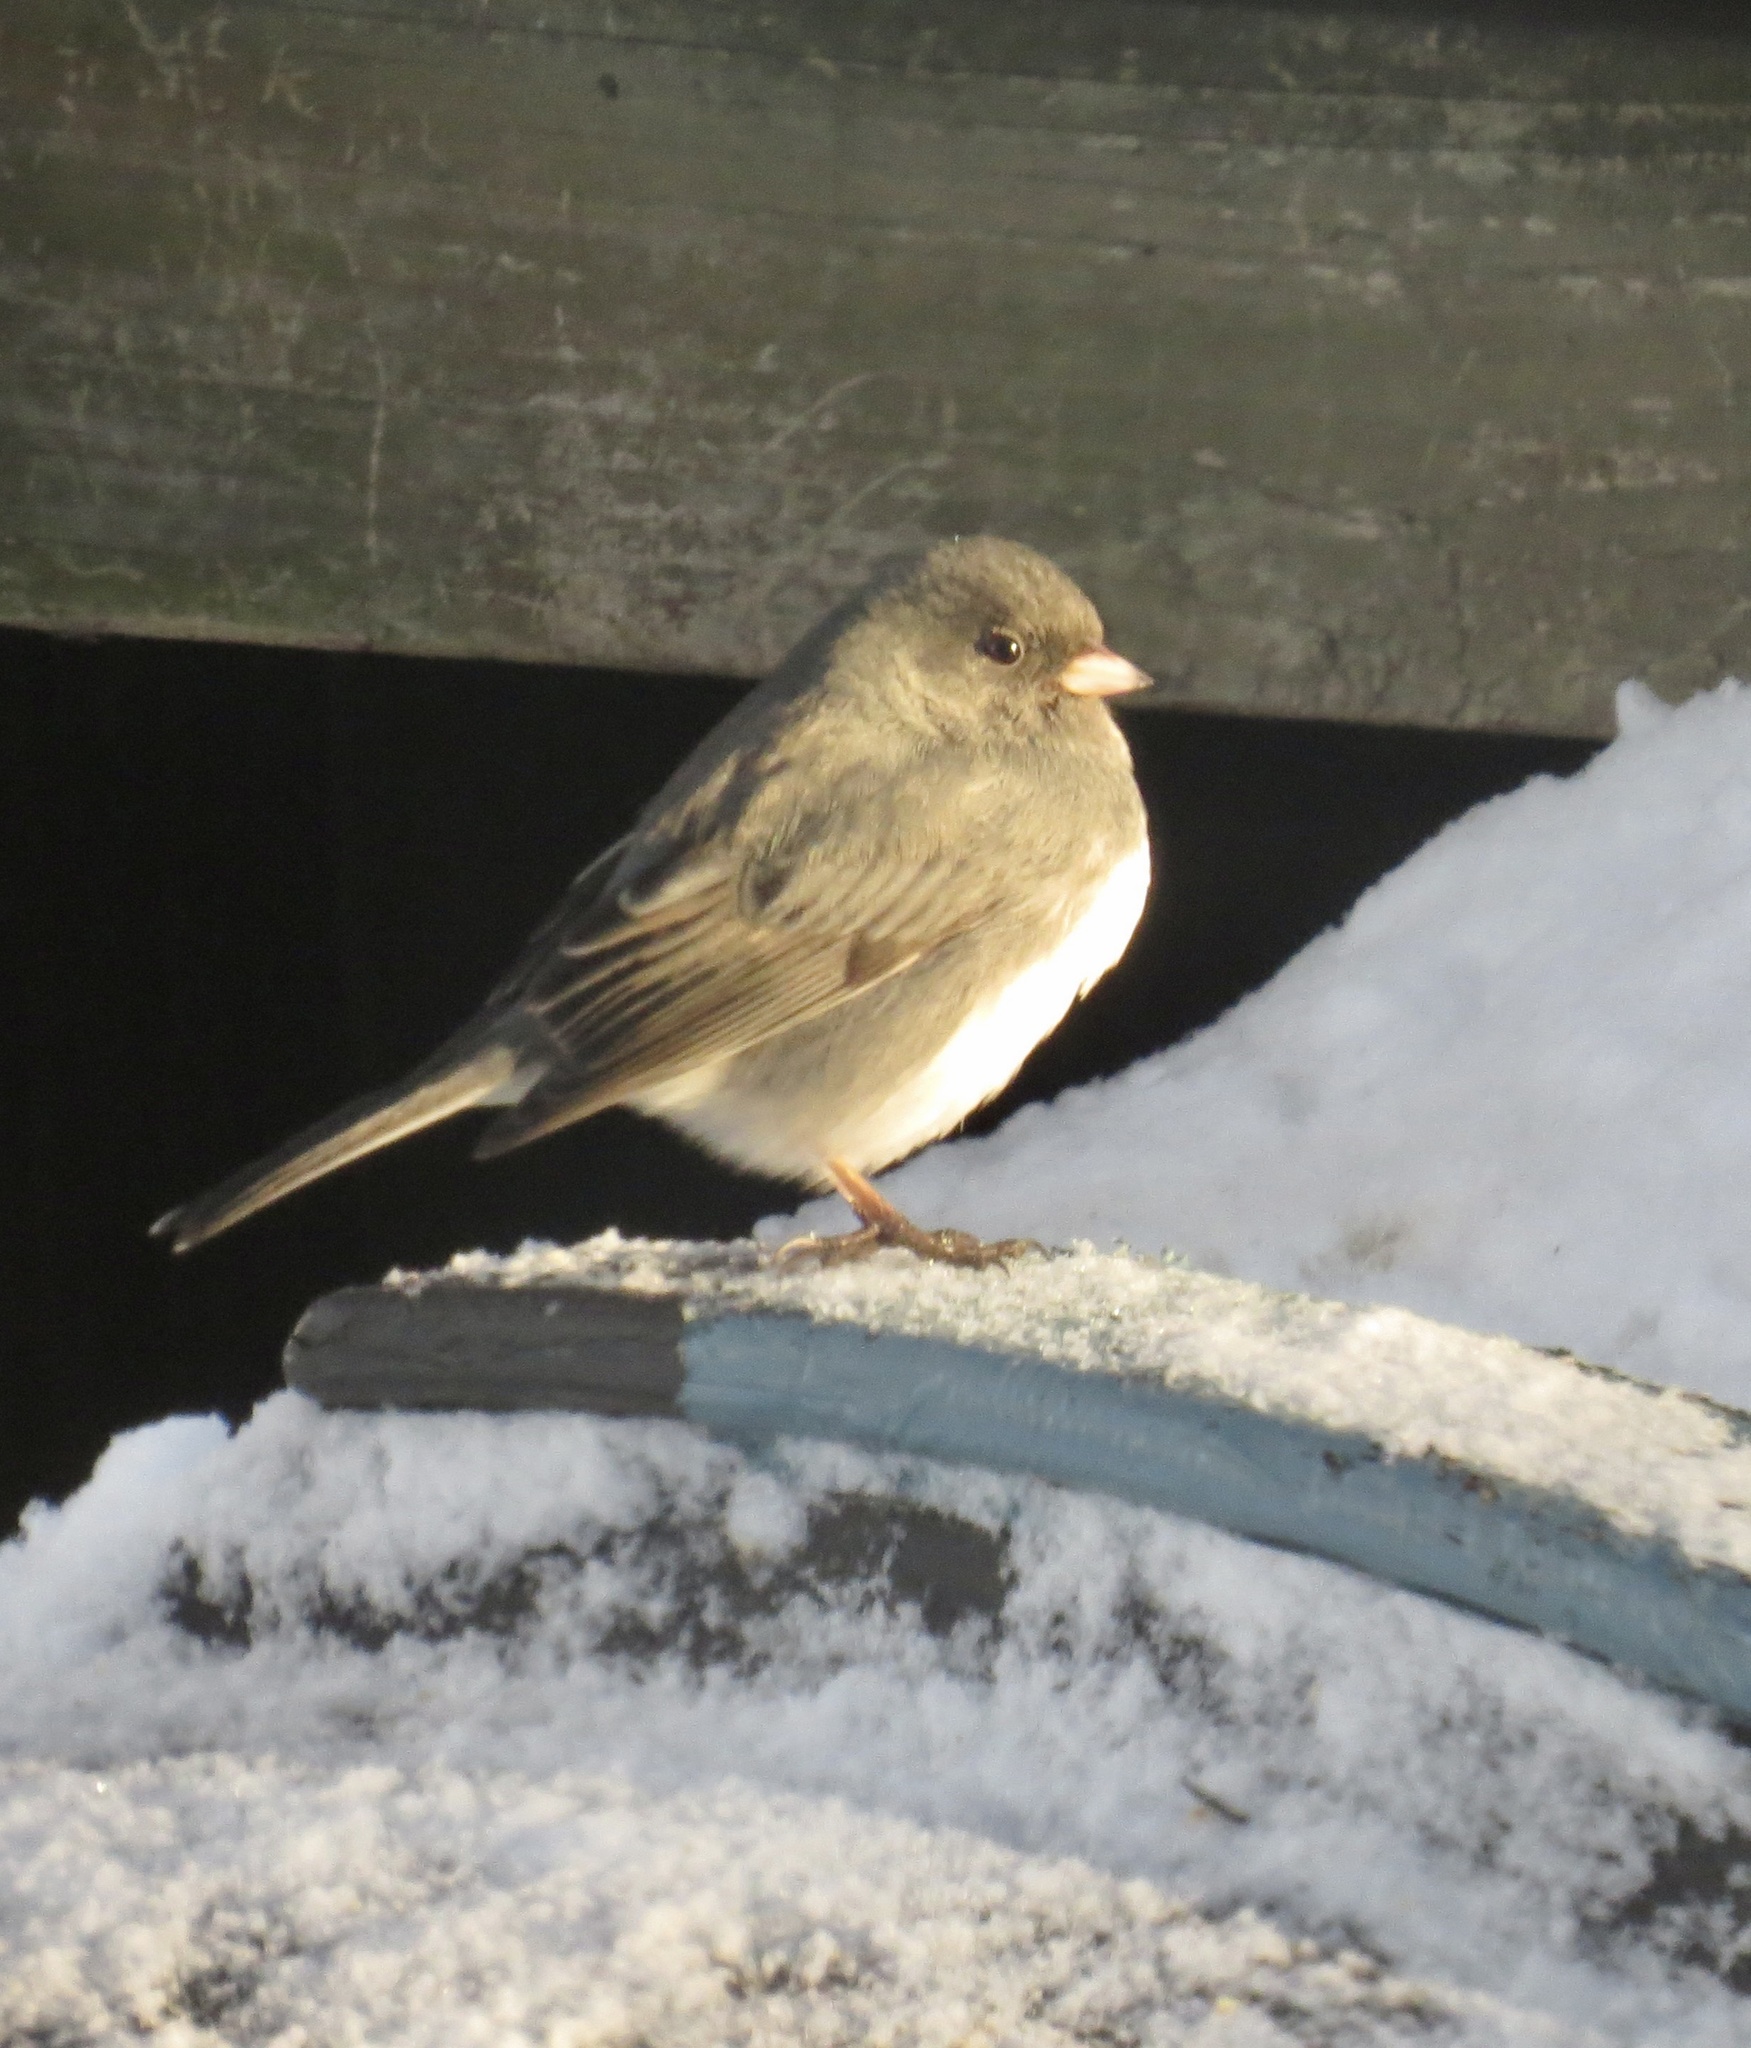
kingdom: Animalia
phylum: Chordata
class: Aves
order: Passeriformes
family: Passerellidae
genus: Junco
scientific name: Junco hyemalis
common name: Dark-eyed junco
